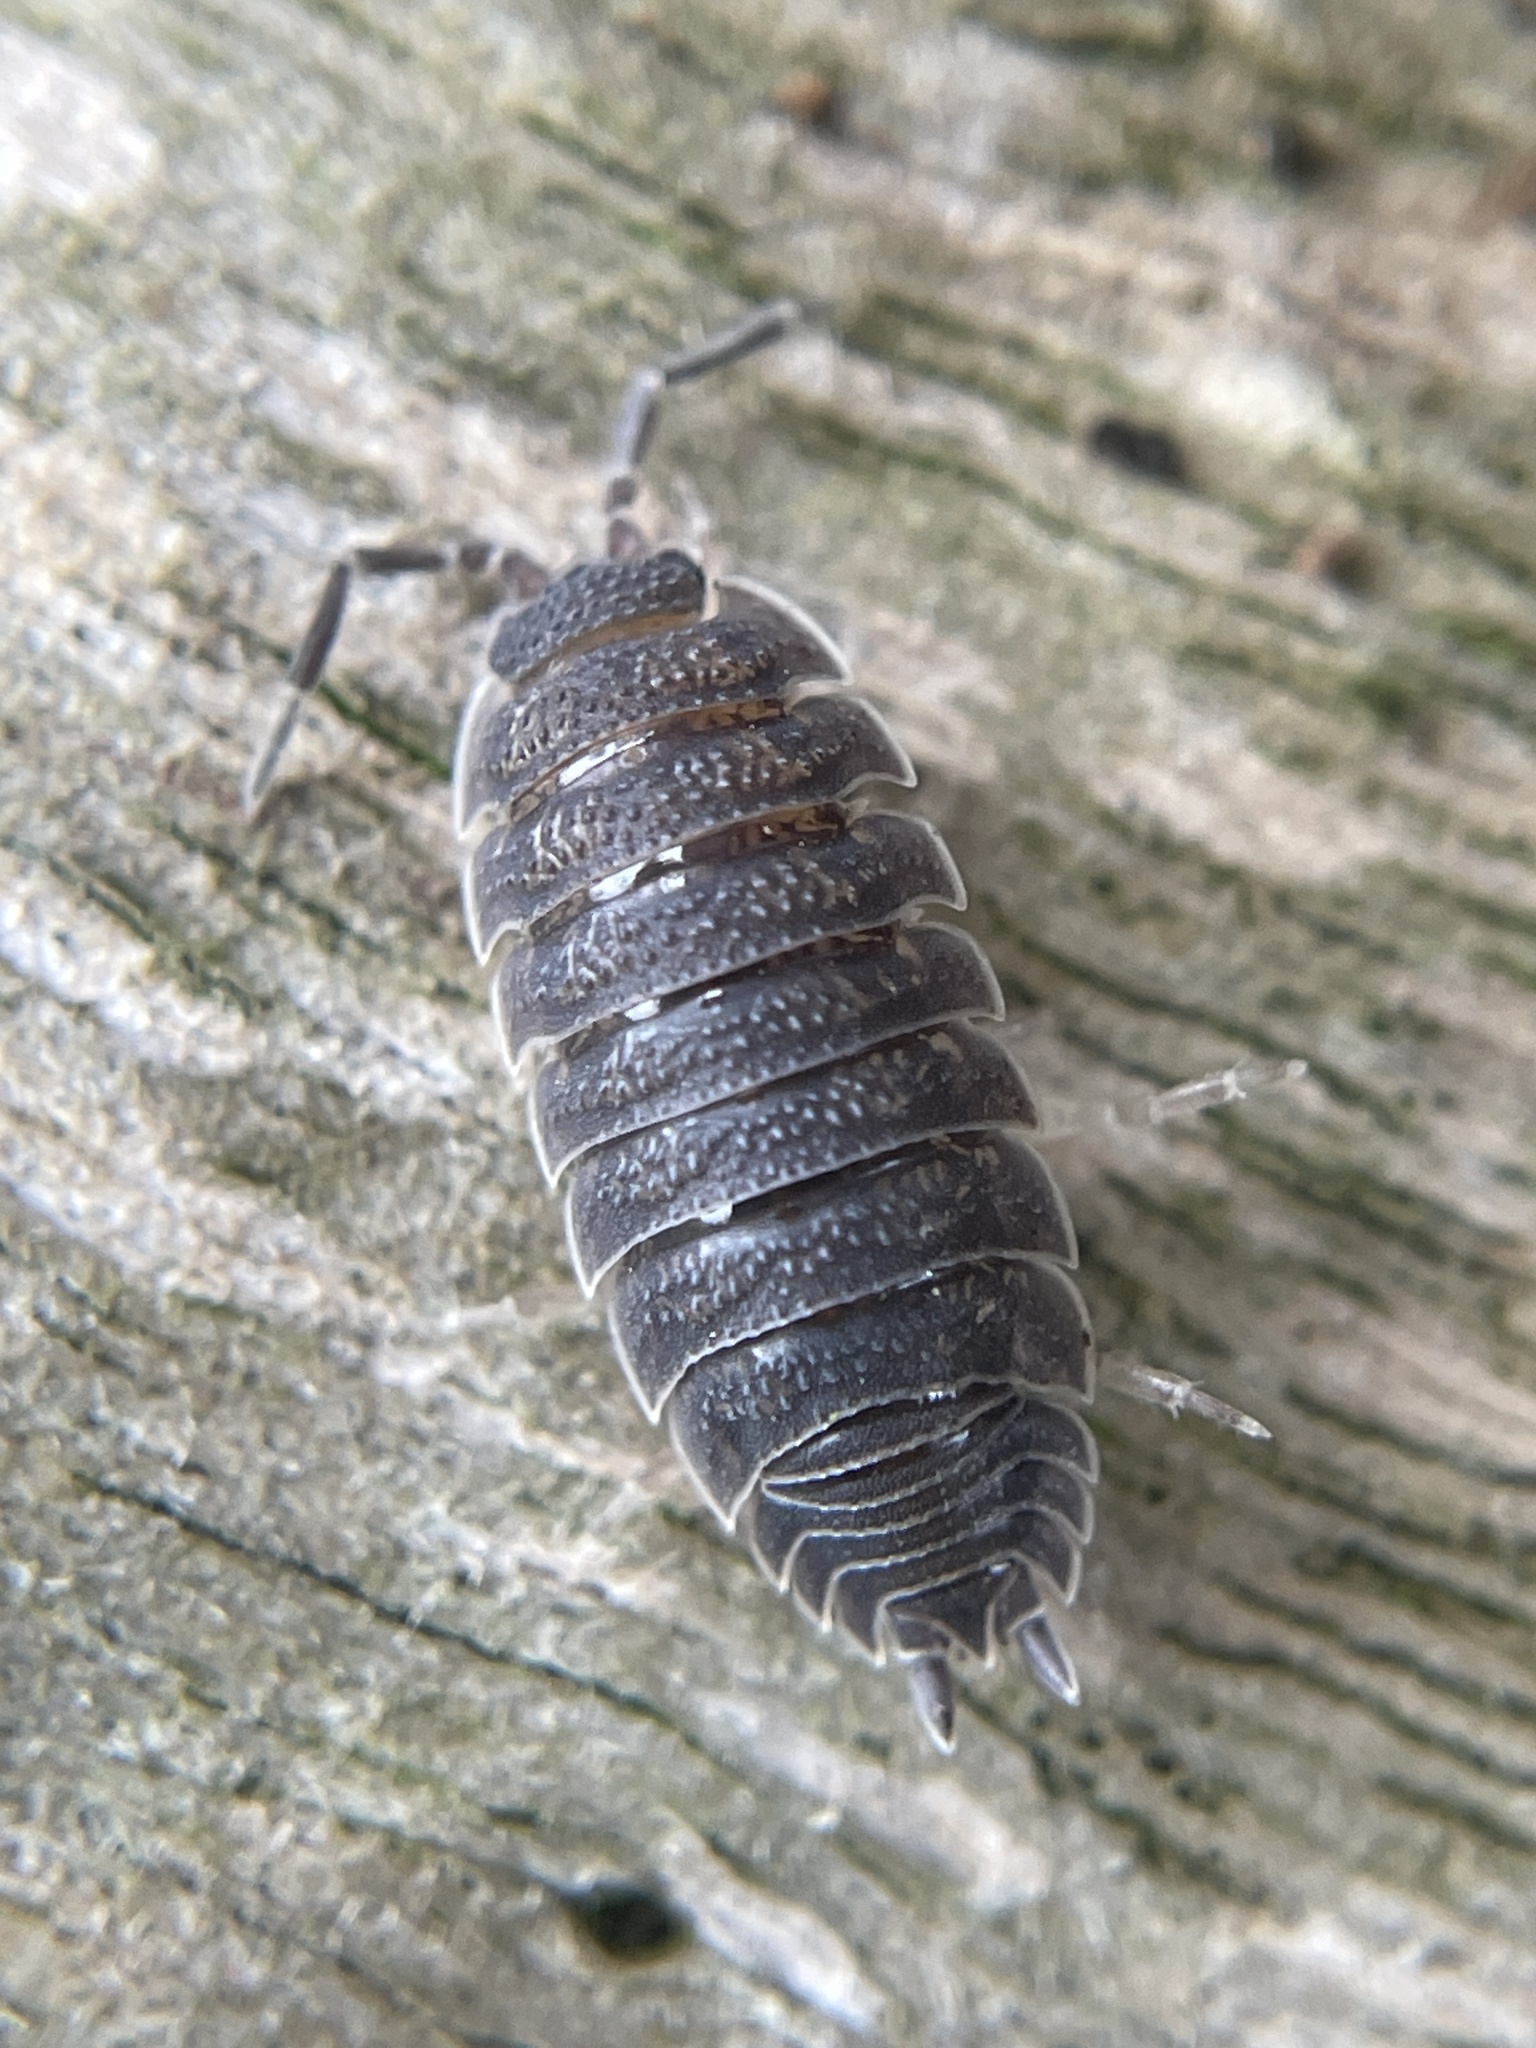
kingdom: Animalia
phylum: Arthropoda
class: Malacostraca
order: Isopoda
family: Porcellionidae
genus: Porcellio
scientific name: Porcellio scaber
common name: Common rough woodlouse
